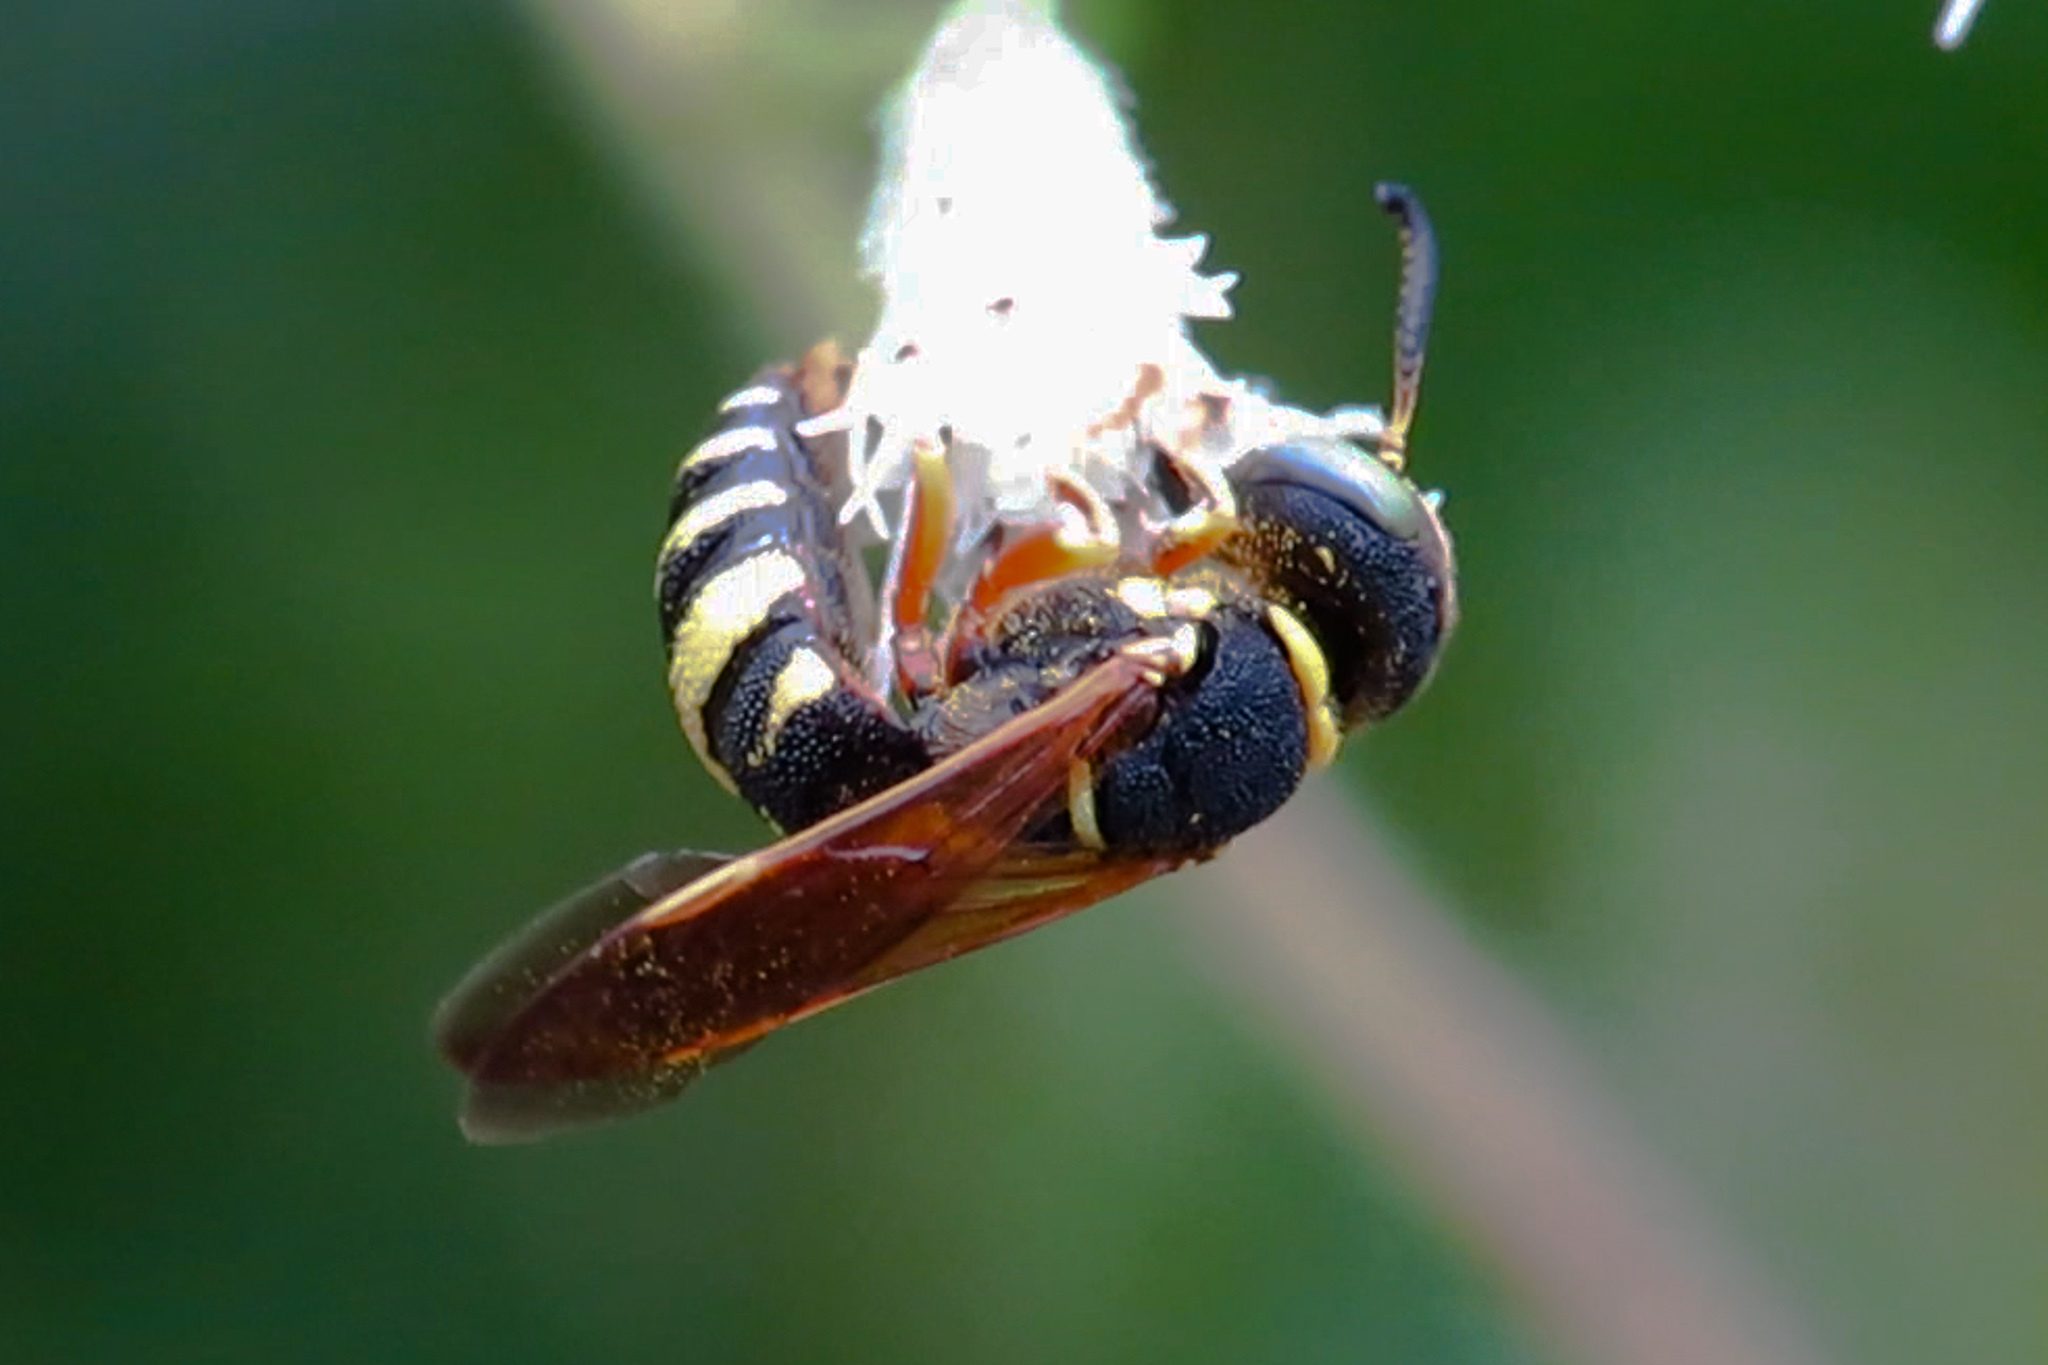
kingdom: Animalia
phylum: Arthropoda
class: Insecta
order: Hymenoptera
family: Crabronidae
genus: Philanthus
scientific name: Philanthus ventilabris
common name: Bee-killer wasp
